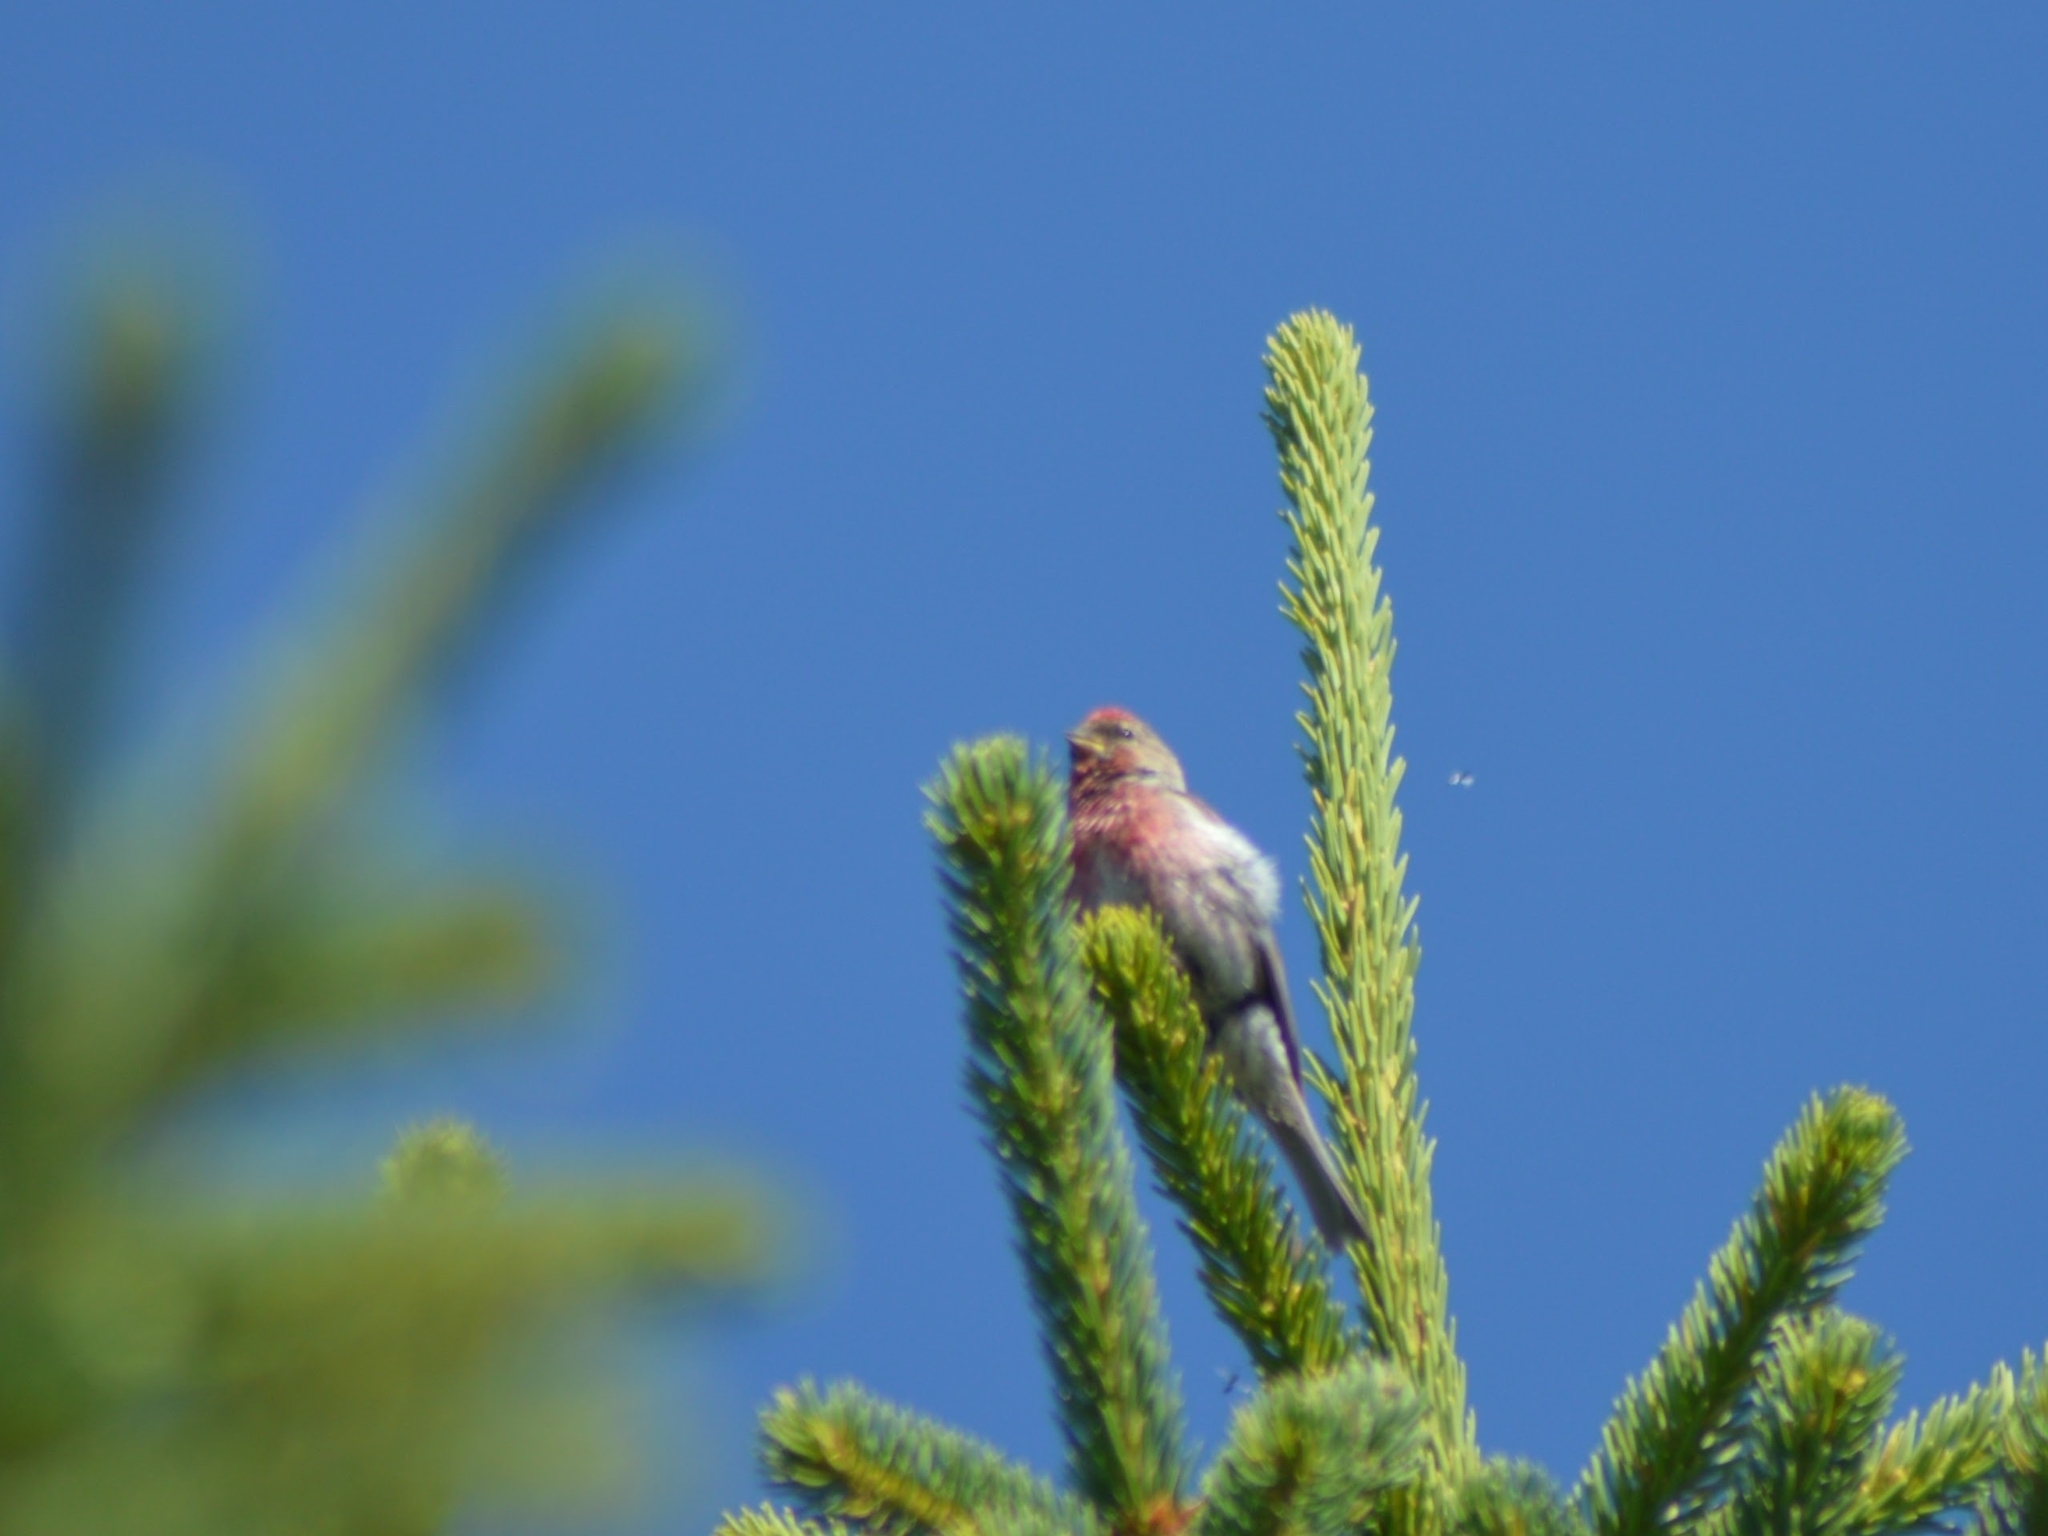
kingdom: Animalia
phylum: Chordata
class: Aves
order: Passeriformes
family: Fringillidae
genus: Acanthis
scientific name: Acanthis flammea
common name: Common redpoll
